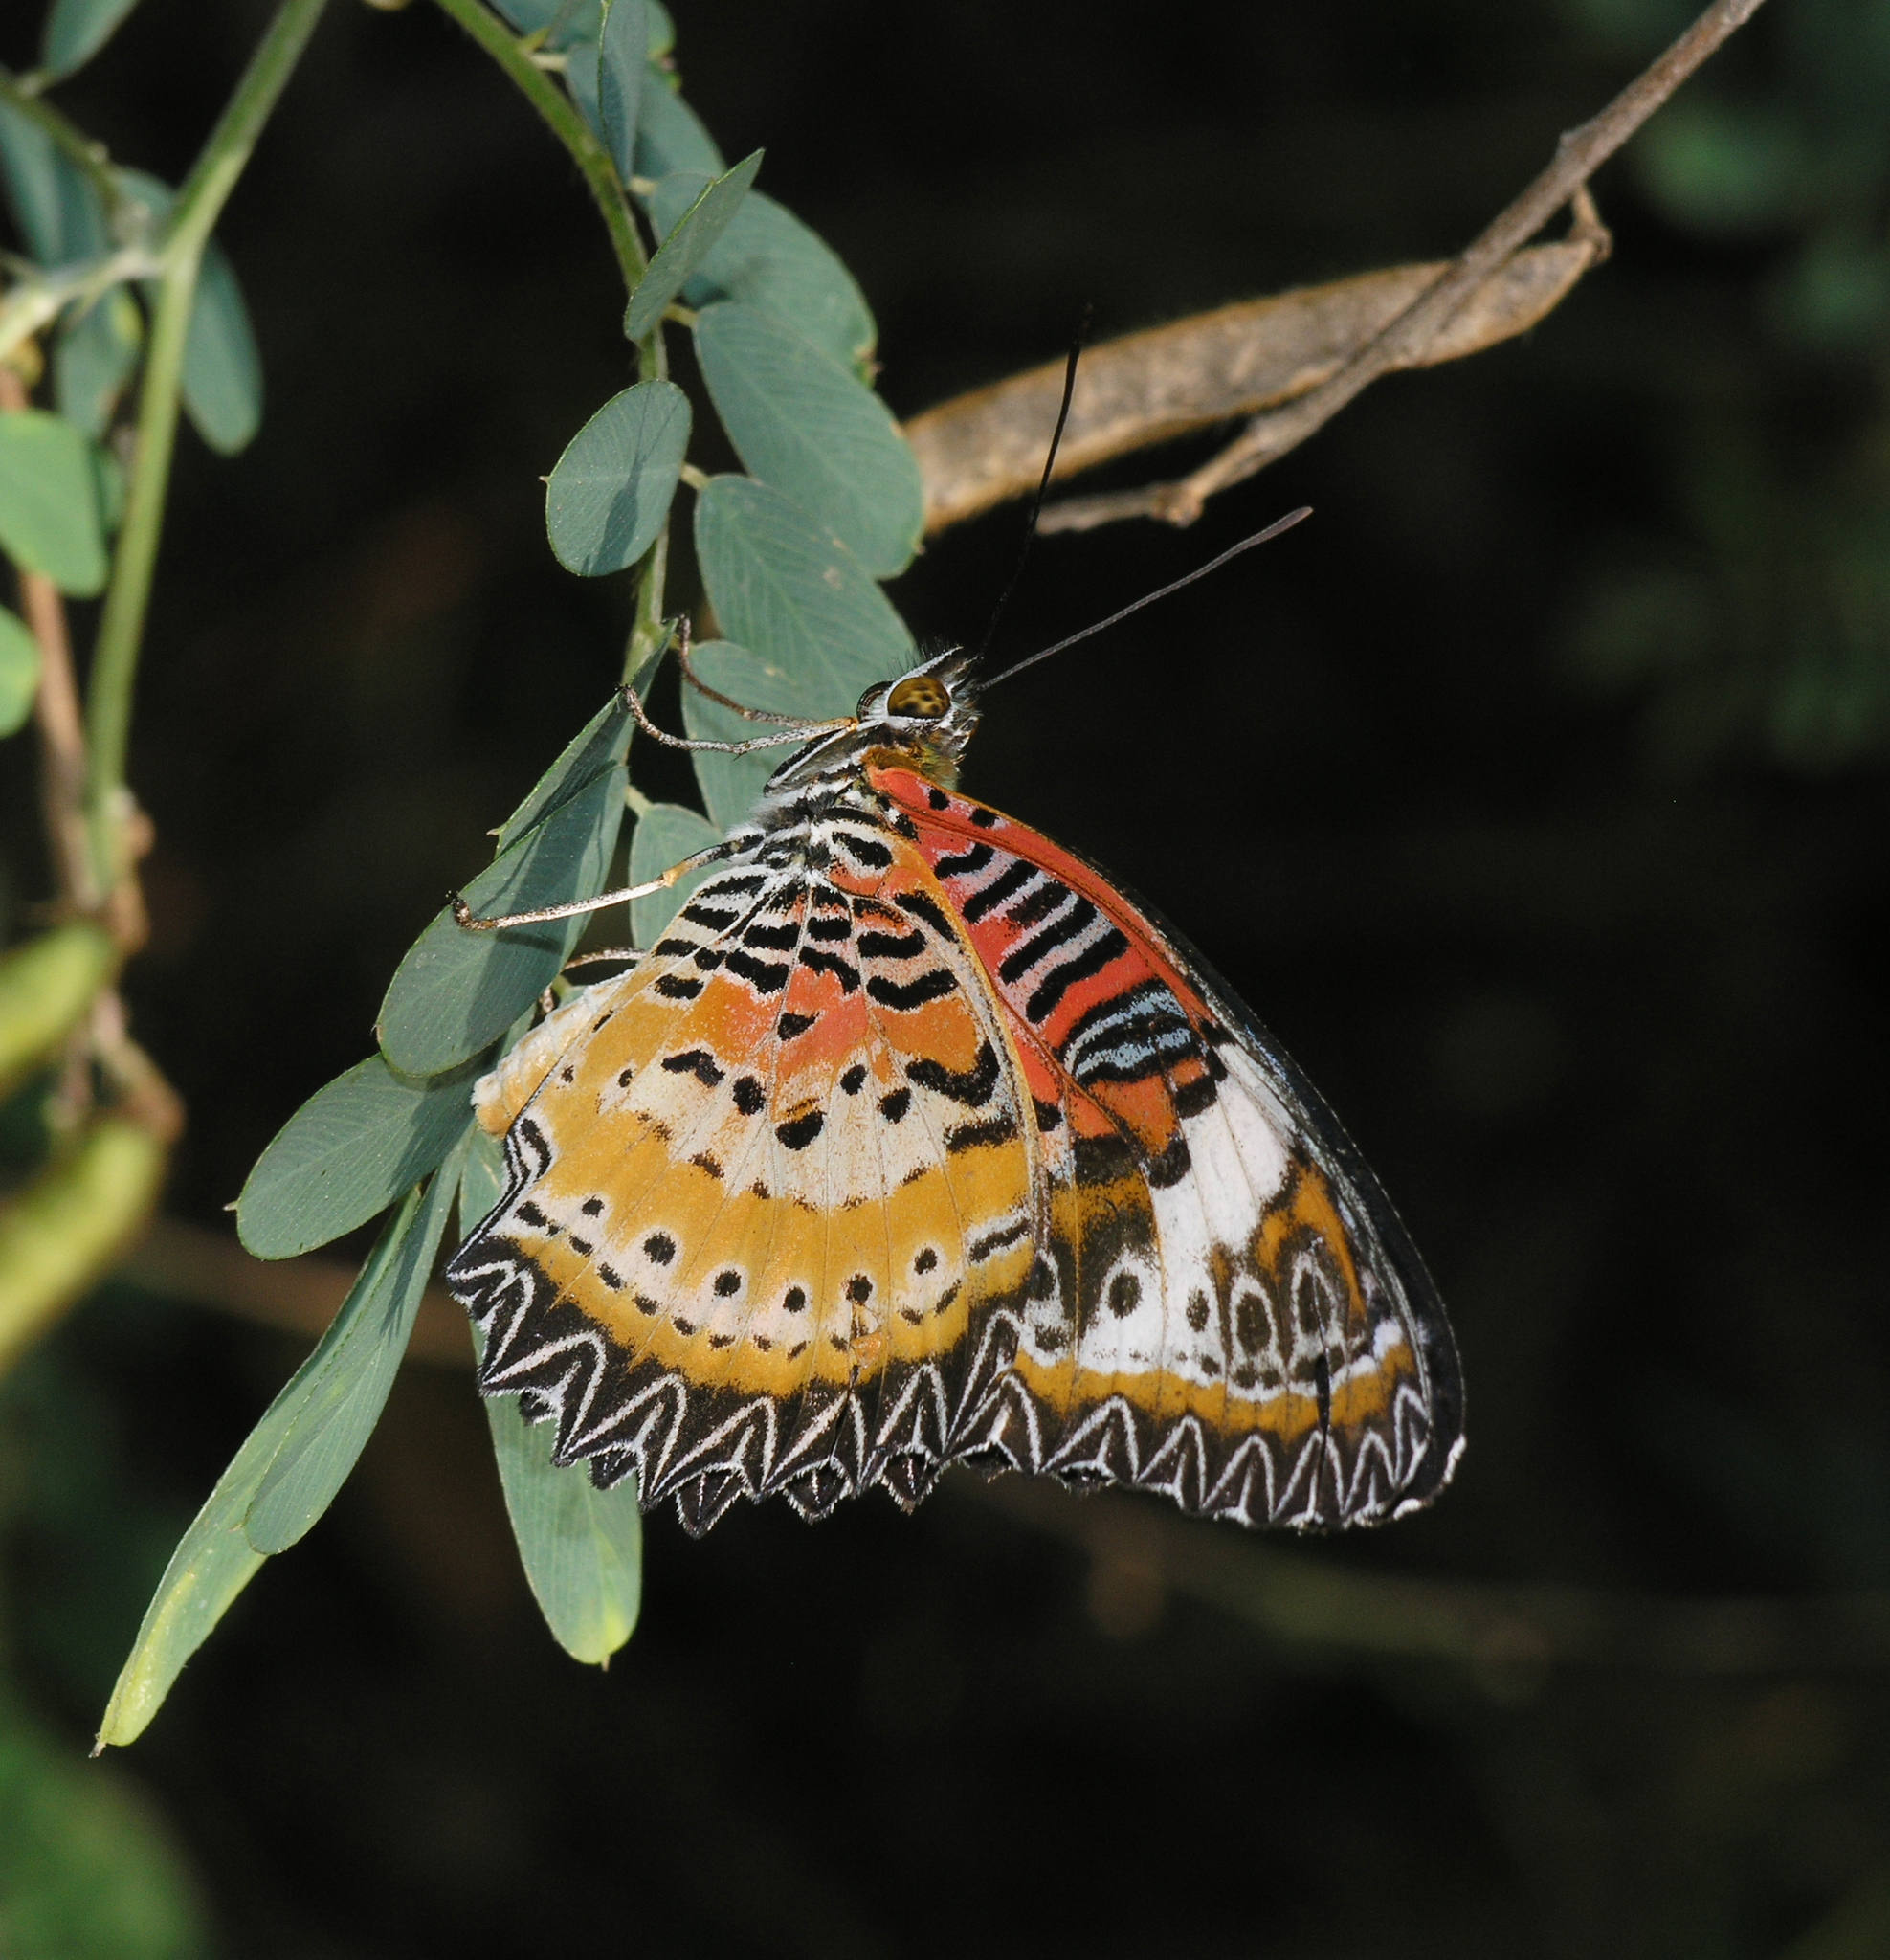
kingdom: Animalia
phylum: Arthropoda
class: Insecta
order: Lepidoptera
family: Nymphalidae
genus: Cethosia
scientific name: Cethosia cyane
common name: Leopard lacewing butterfly
